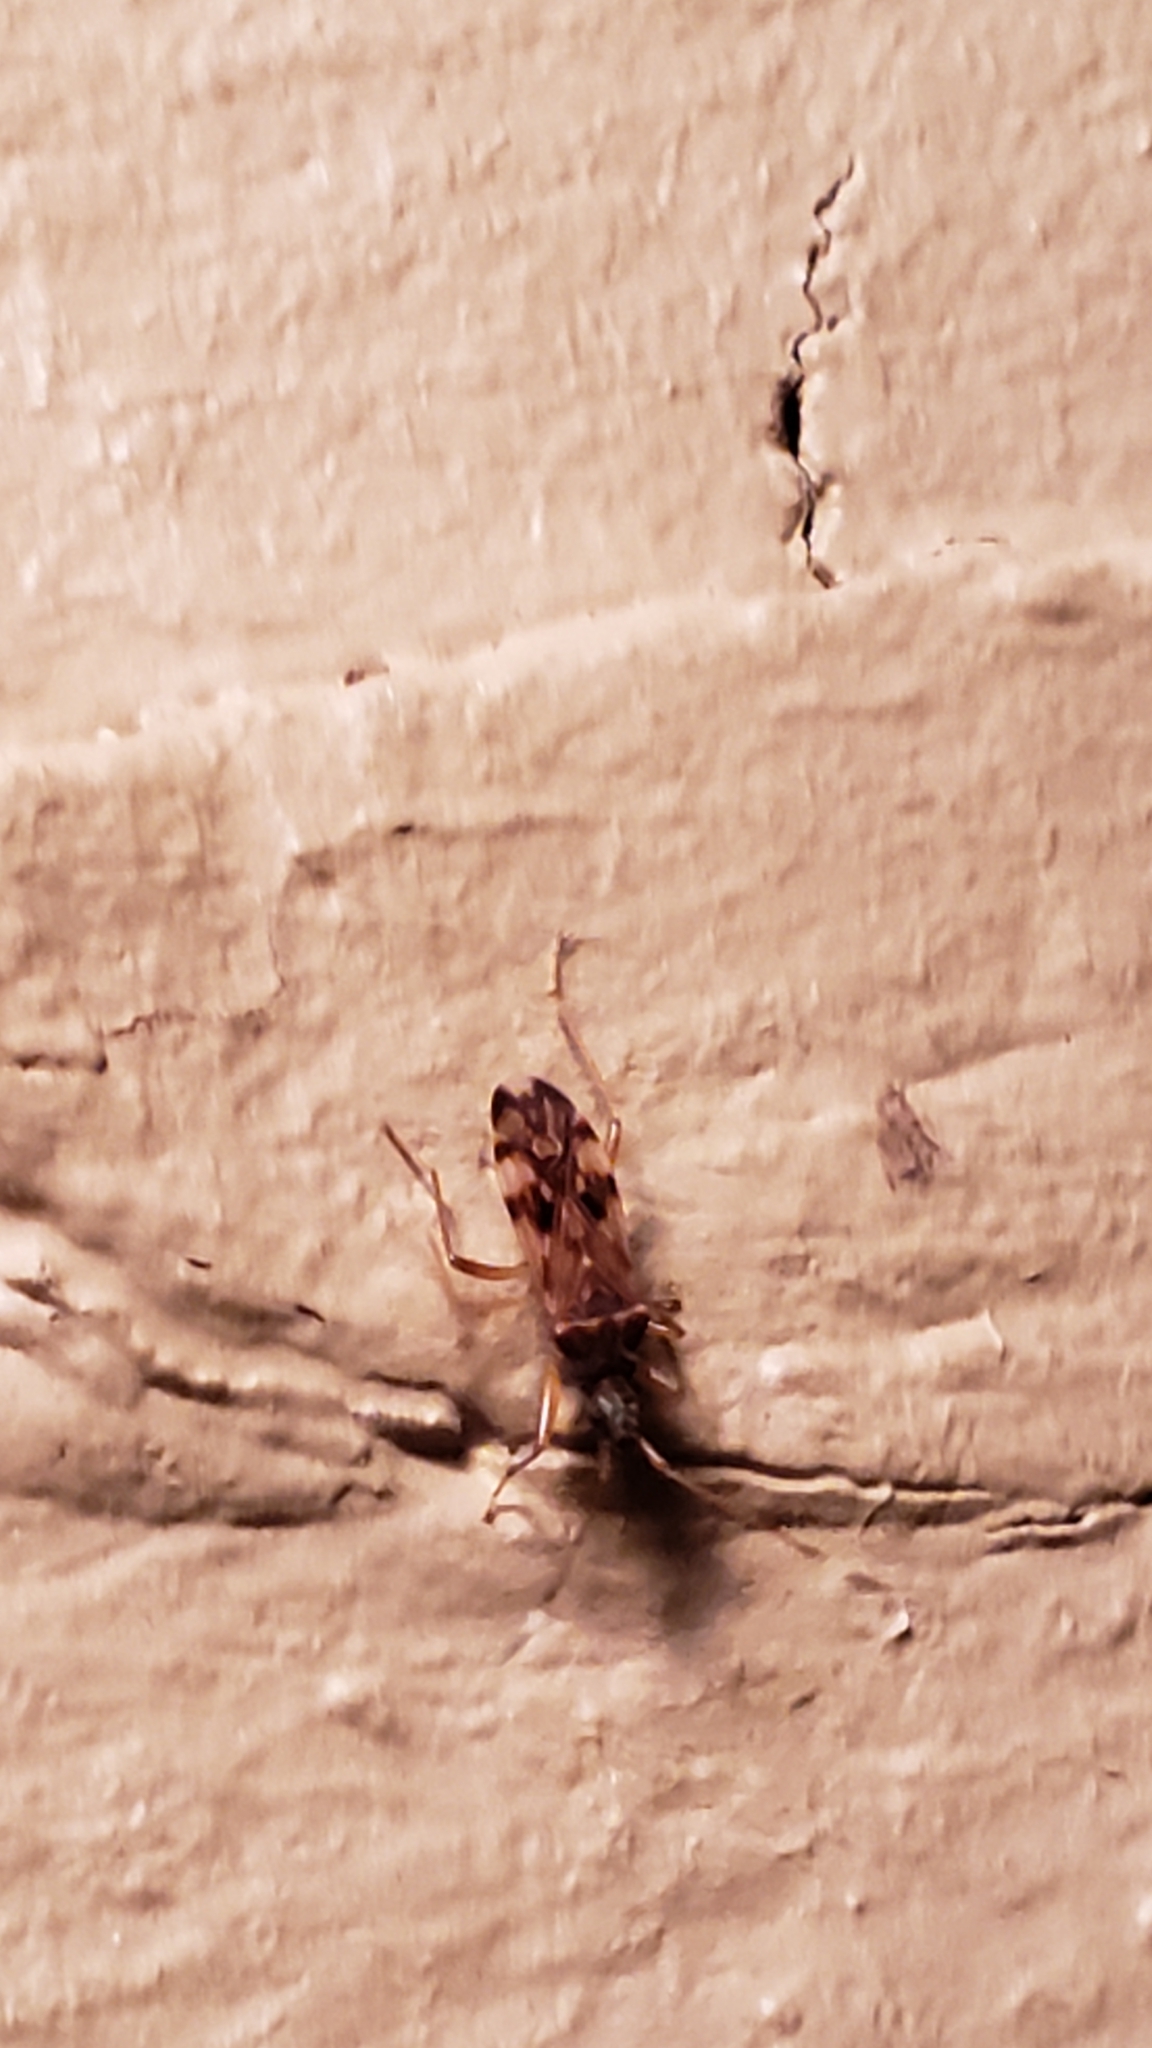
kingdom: Animalia
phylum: Arthropoda
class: Insecta
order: Hemiptera
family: Rhyparochromidae
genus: Ozophora
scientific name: Ozophora picturata
